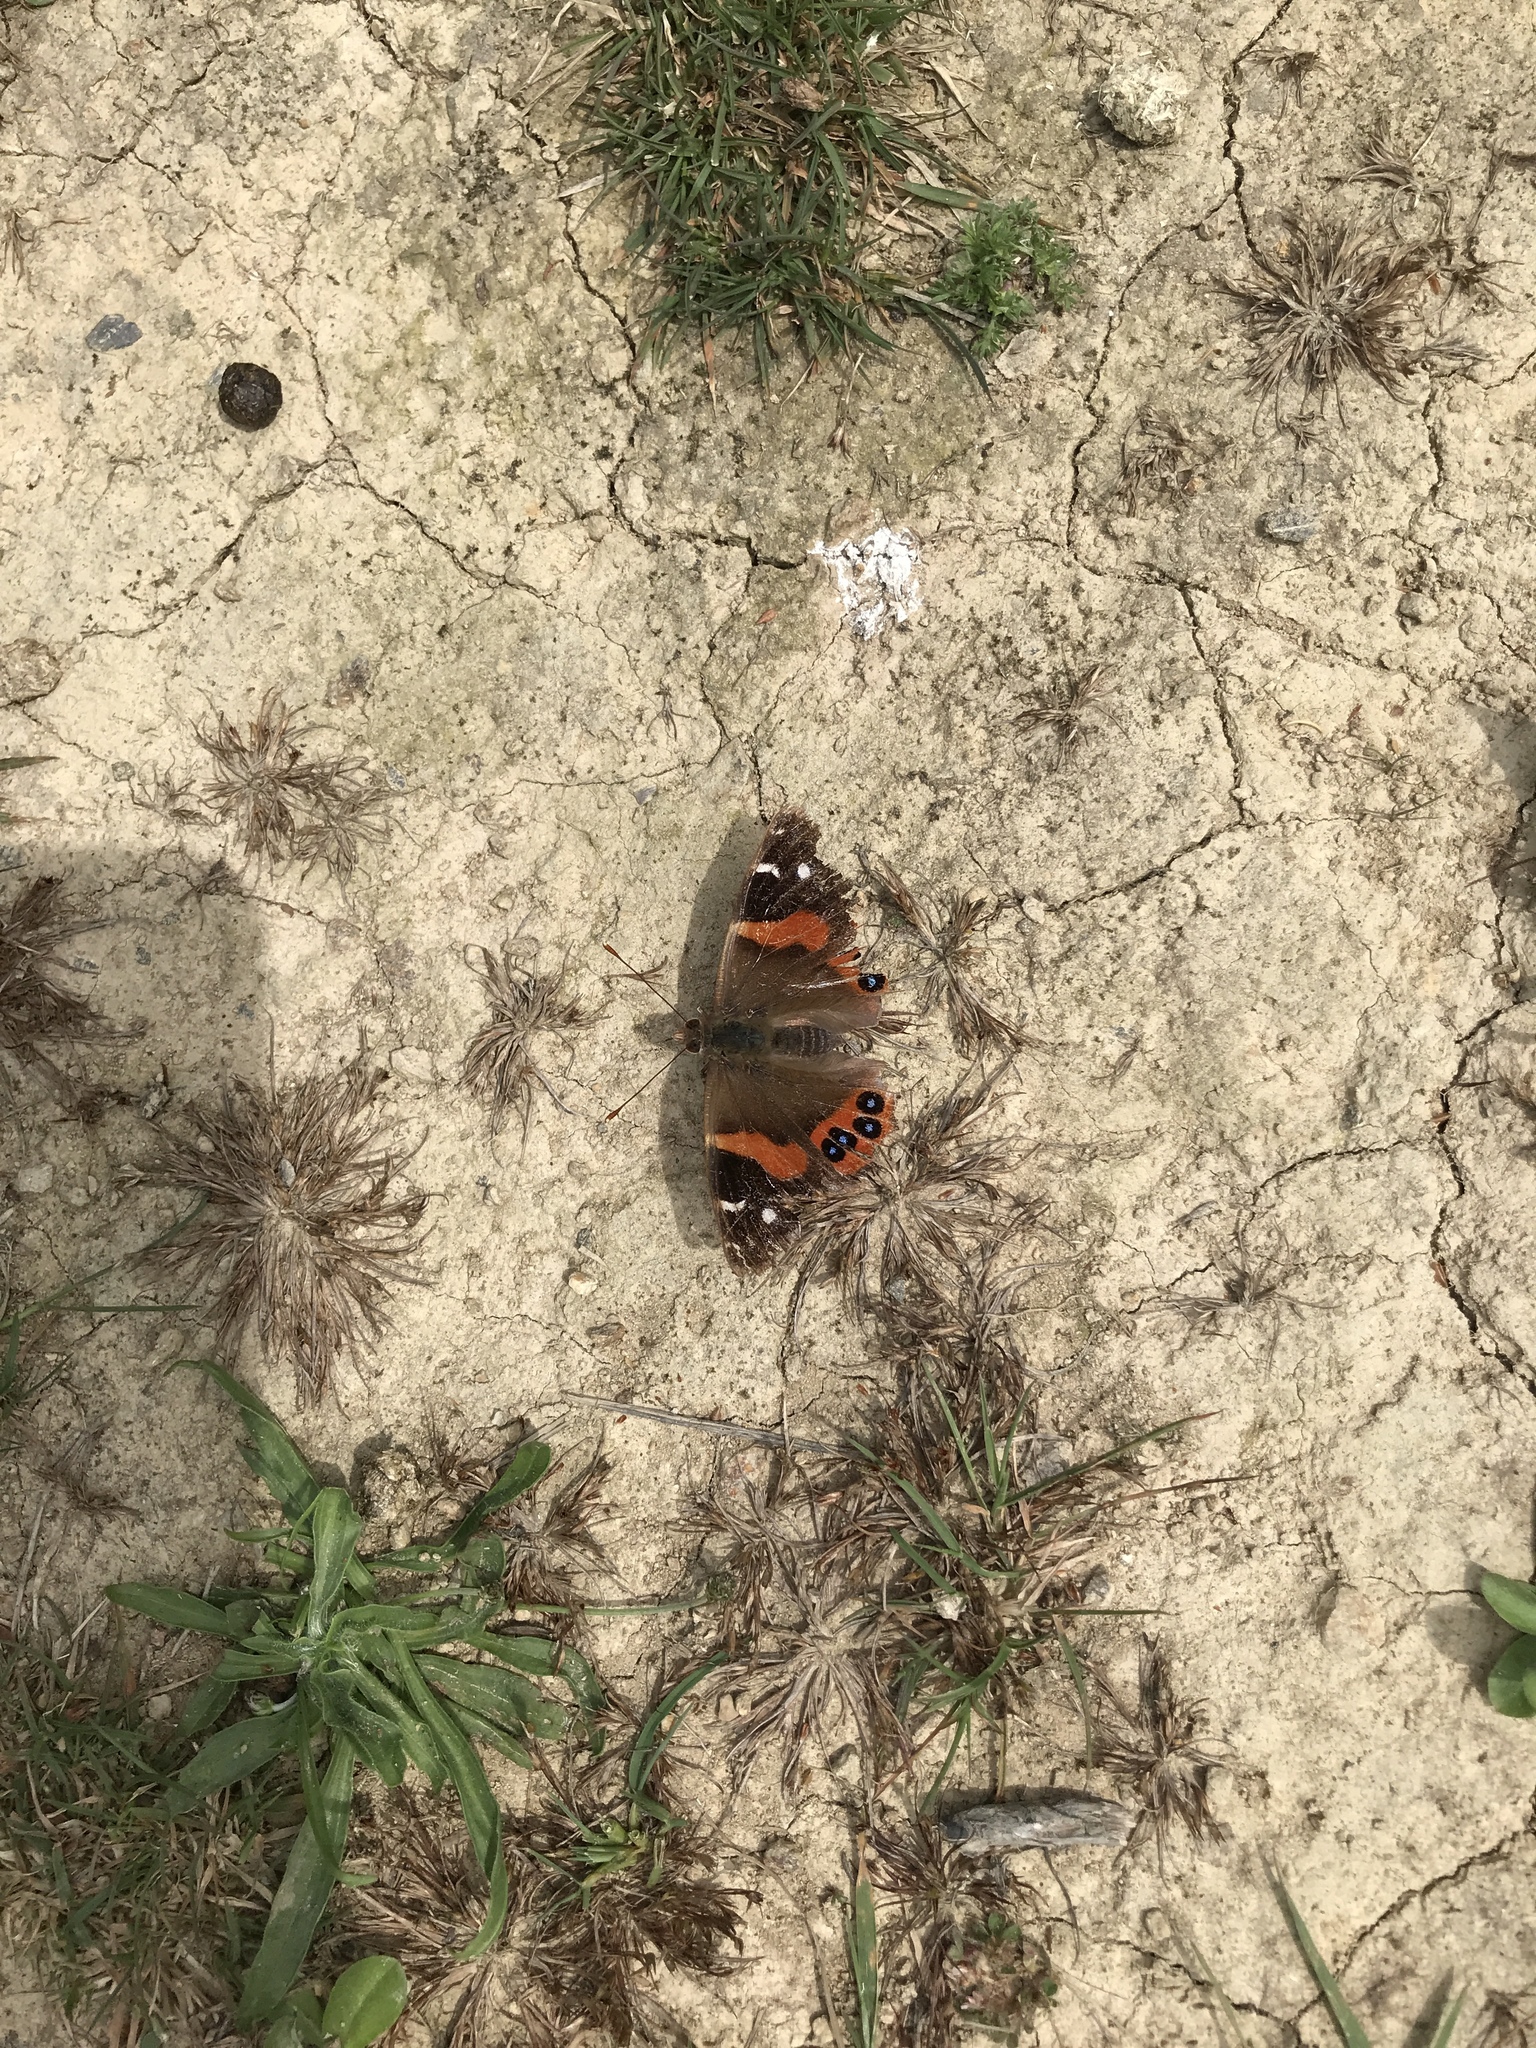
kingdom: Animalia
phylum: Arthropoda
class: Insecta
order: Lepidoptera
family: Nymphalidae
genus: Vanessa
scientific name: Vanessa gonerilla
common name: New zealand red admiral
